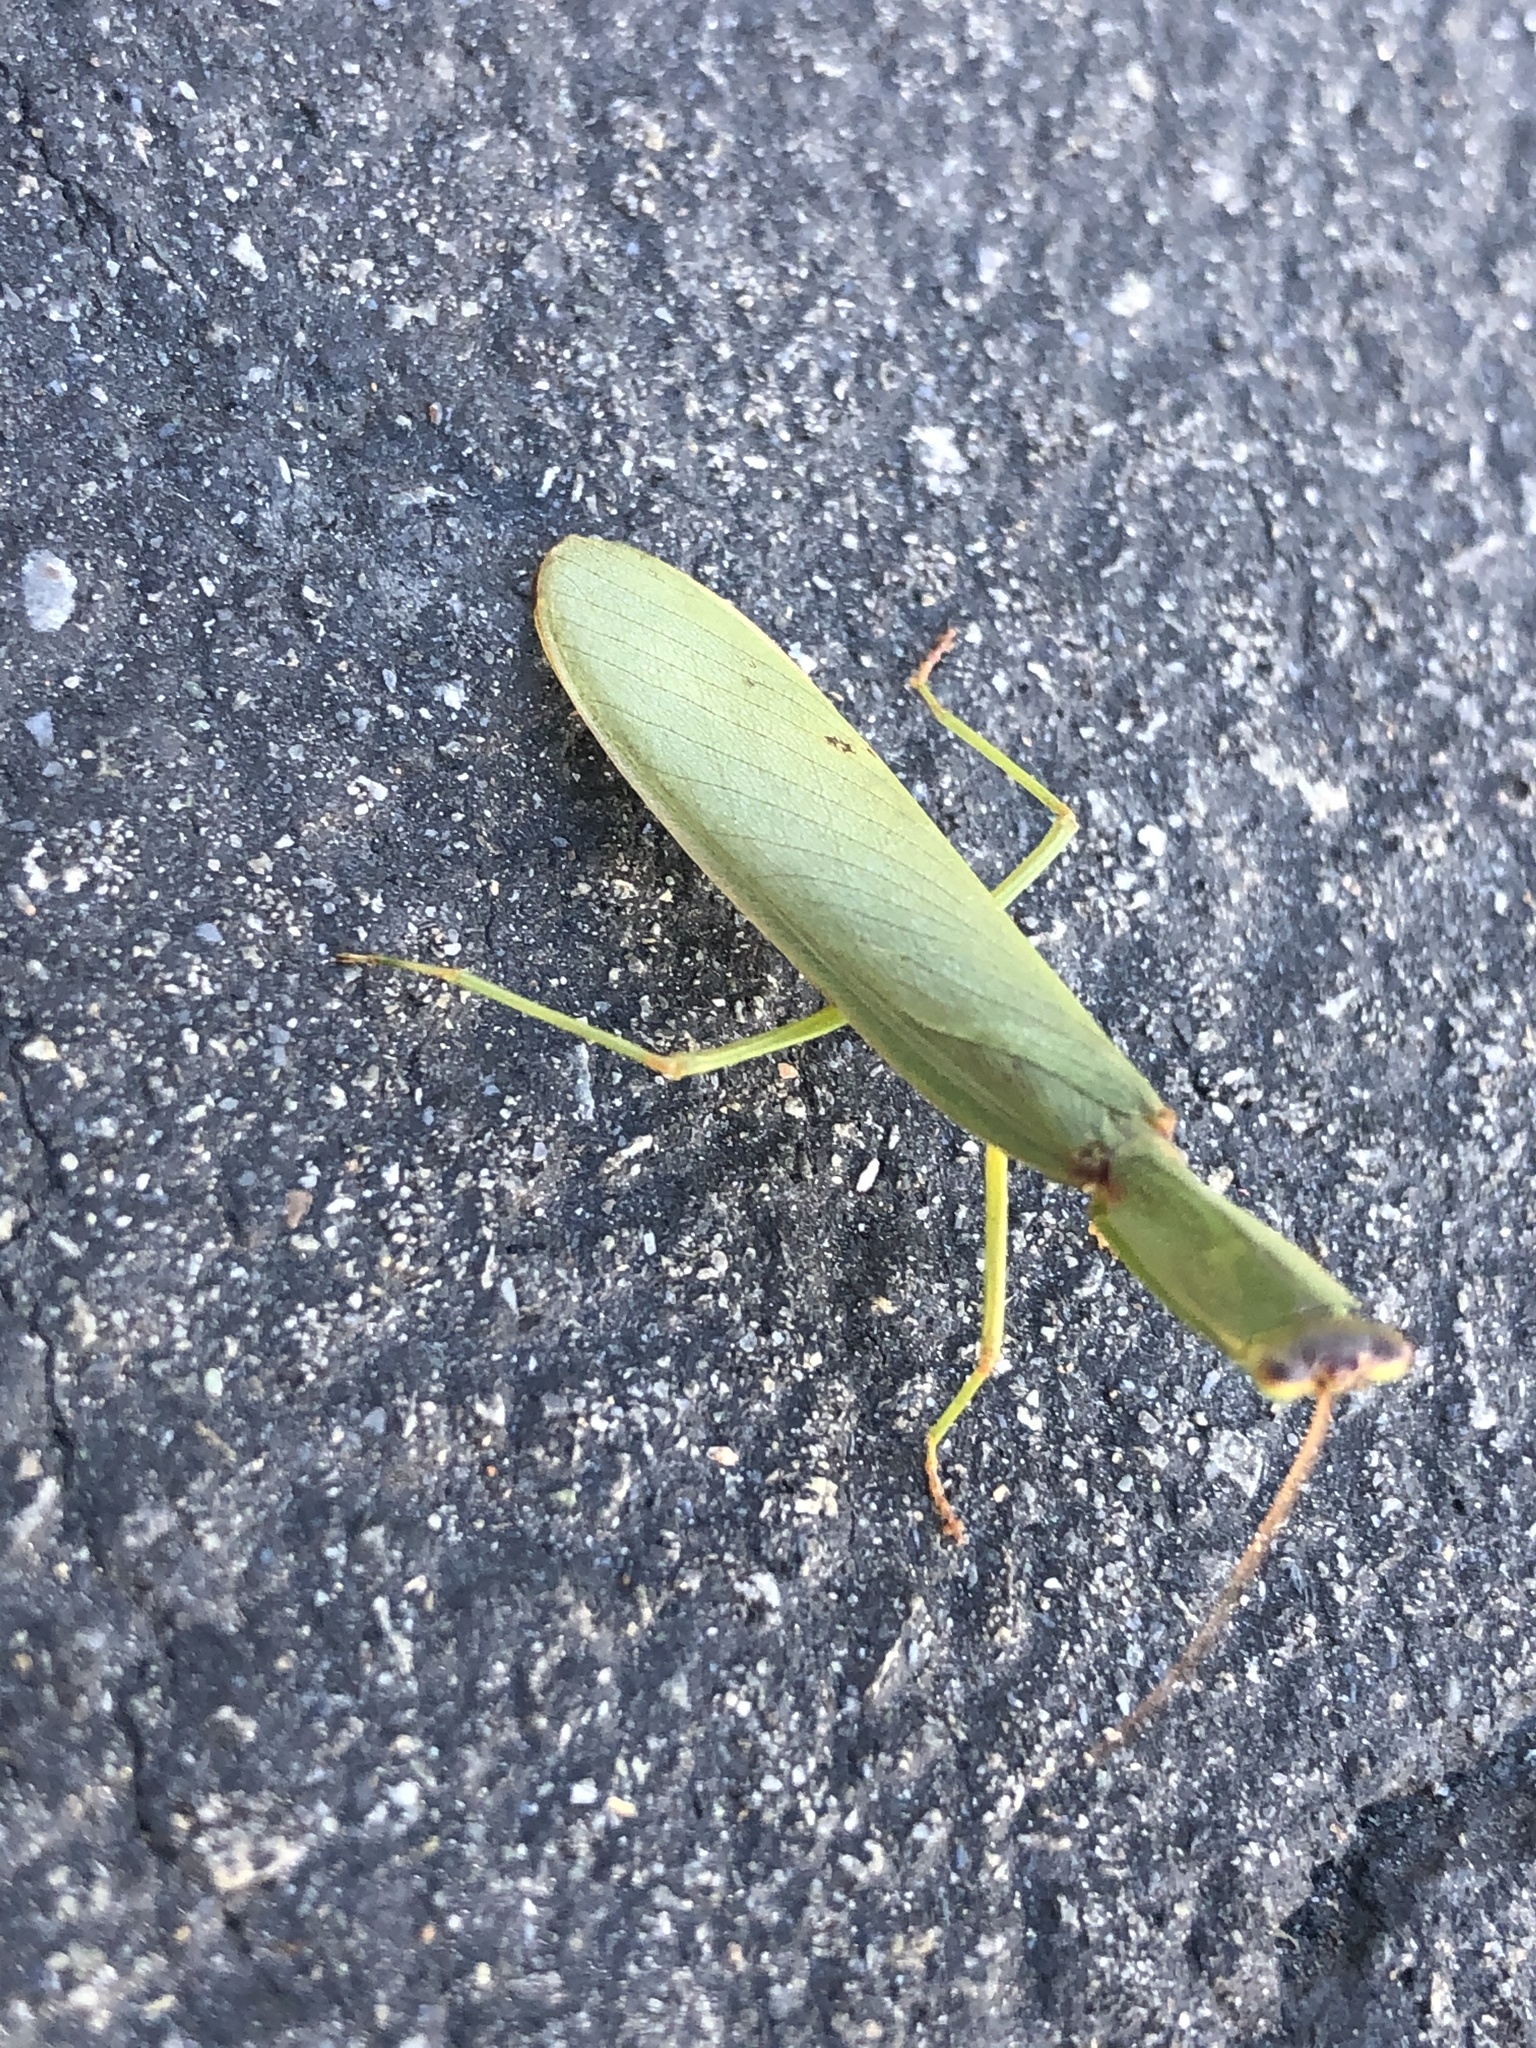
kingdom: Animalia
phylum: Arthropoda
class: Insecta
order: Mantodea
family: Mantidae
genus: Orthodera
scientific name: Orthodera novaezealandiae
